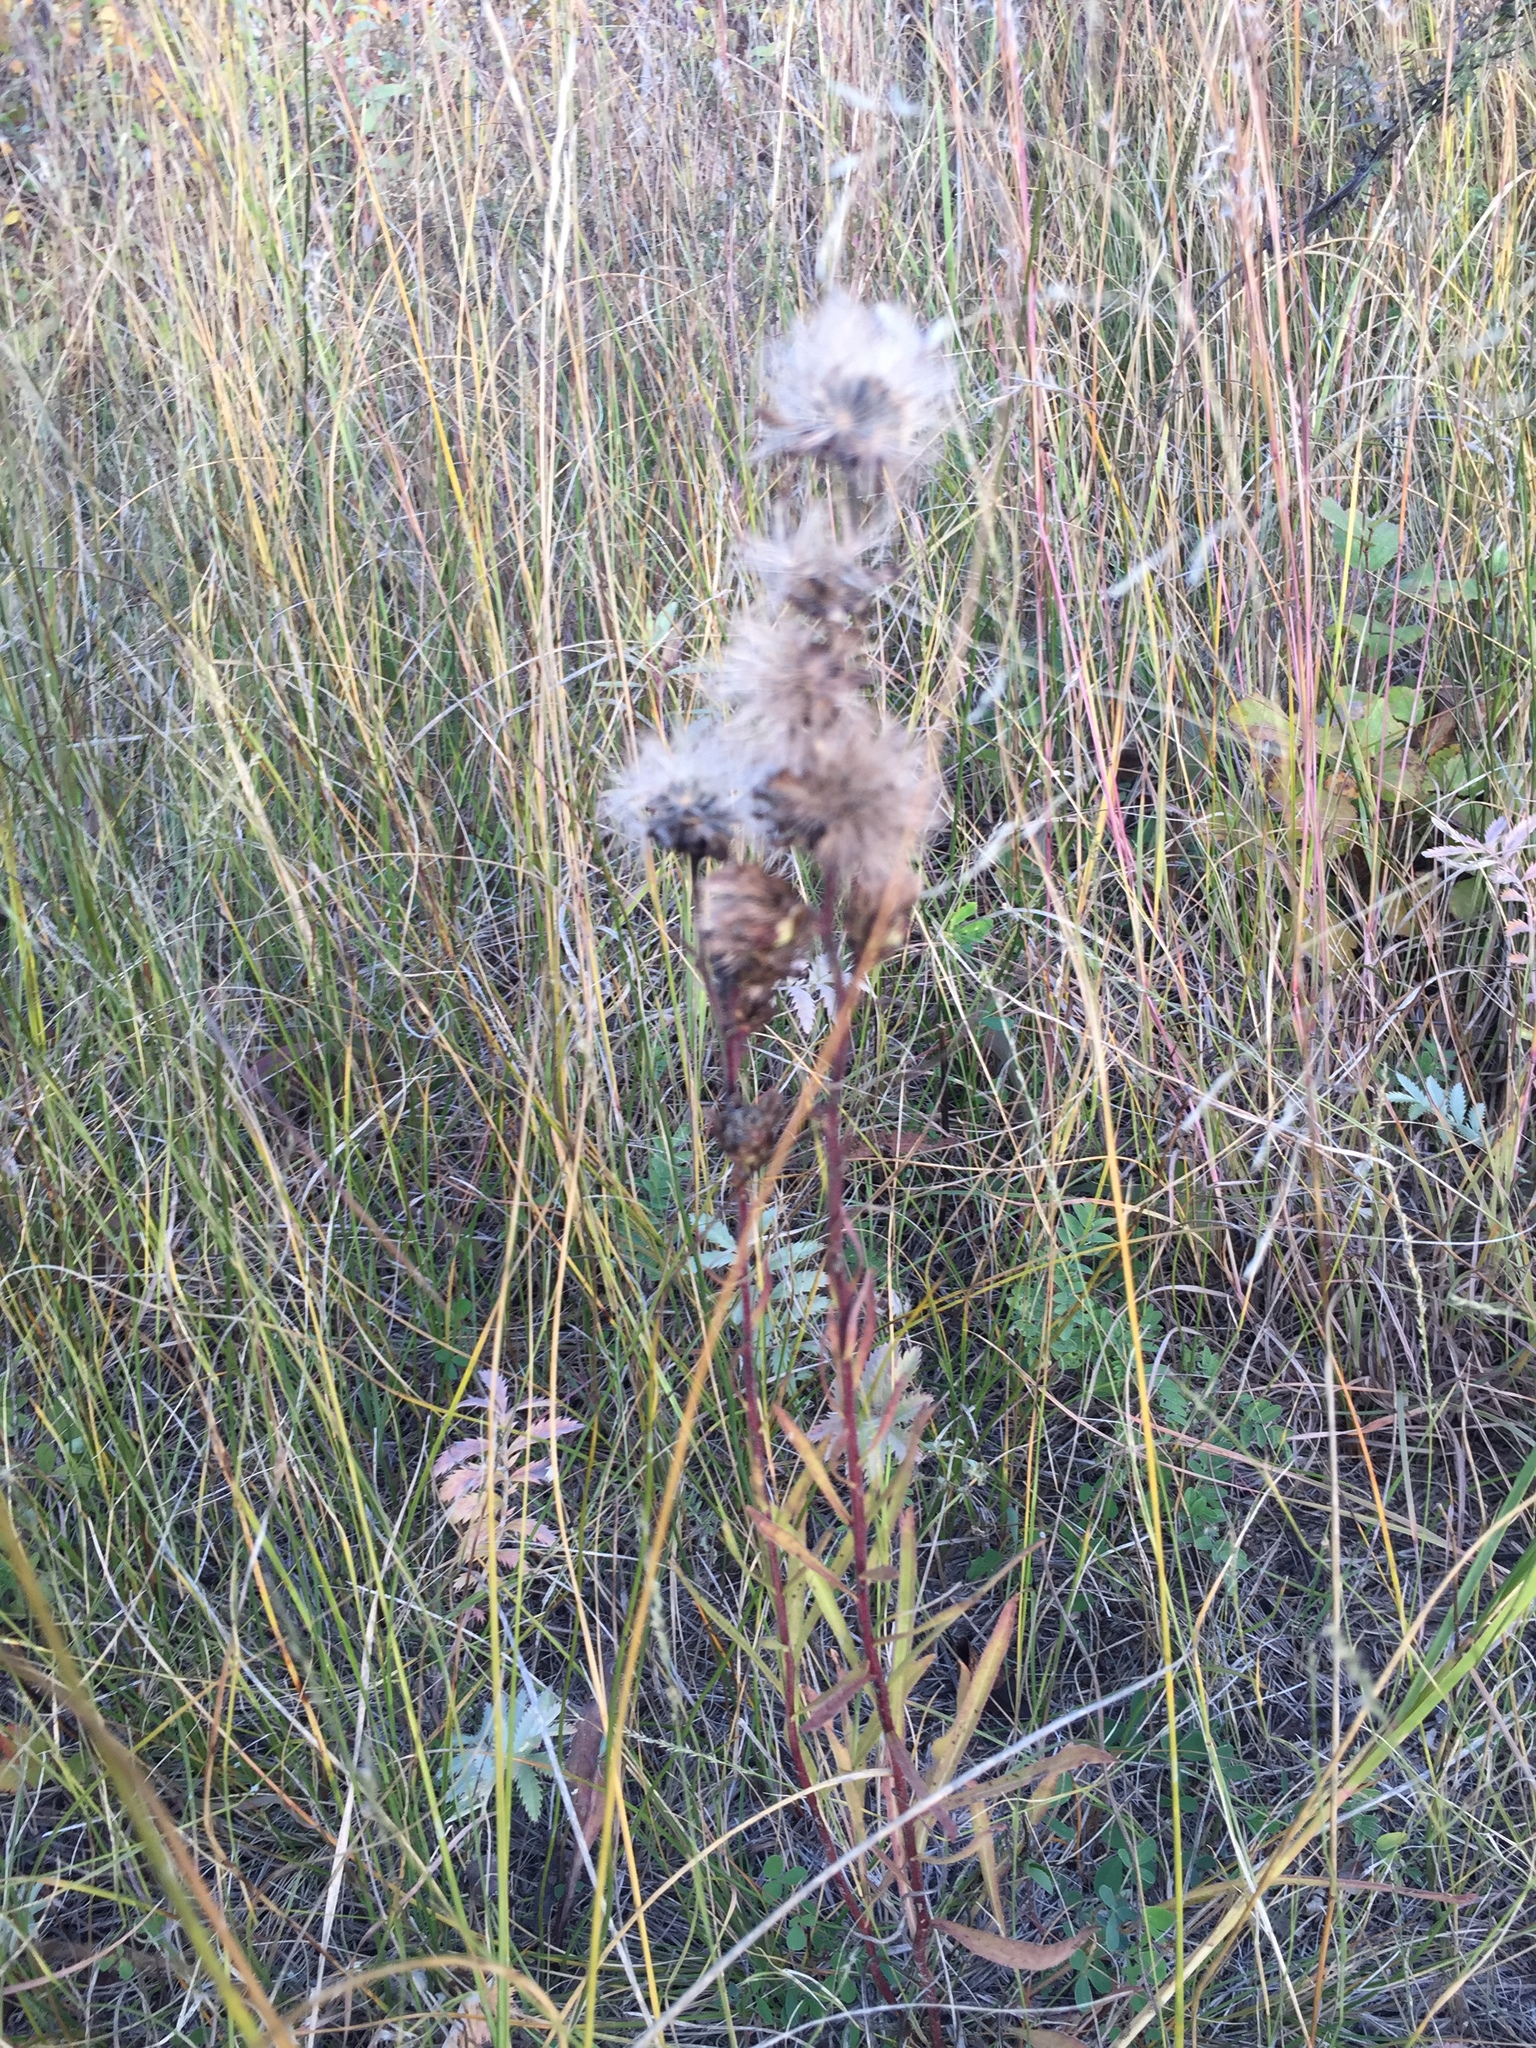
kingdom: Plantae
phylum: Tracheophyta
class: Magnoliopsida
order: Asterales
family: Asteraceae
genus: Liatris
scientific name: Liatris ligulistylis
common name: Northern plains gayfeather
